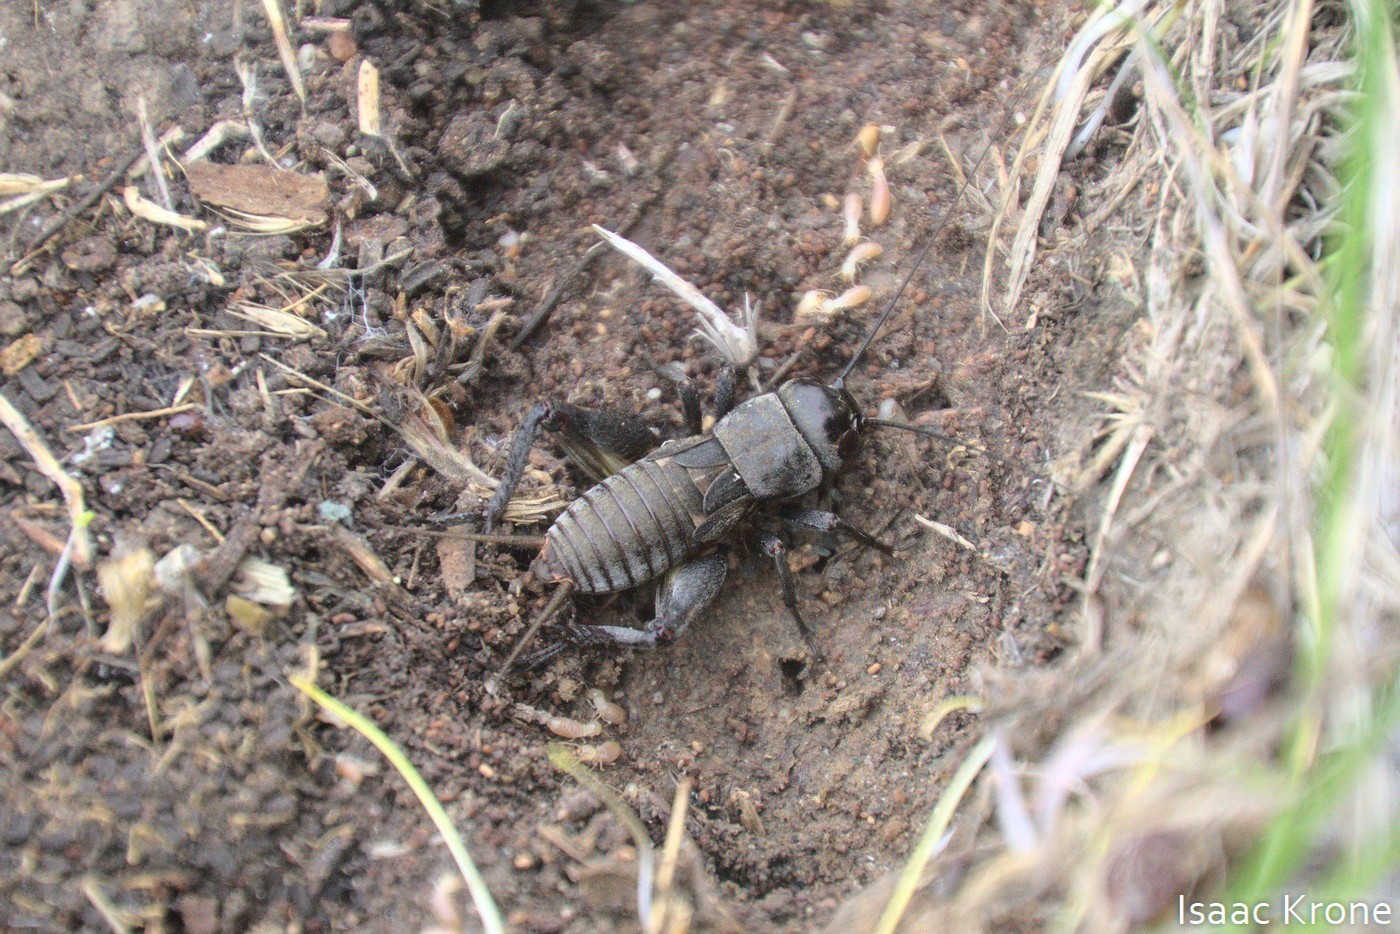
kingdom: Animalia
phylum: Arthropoda
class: Insecta
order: Orthoptera
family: Gryllidae
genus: Gryllus
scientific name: Gryllus
